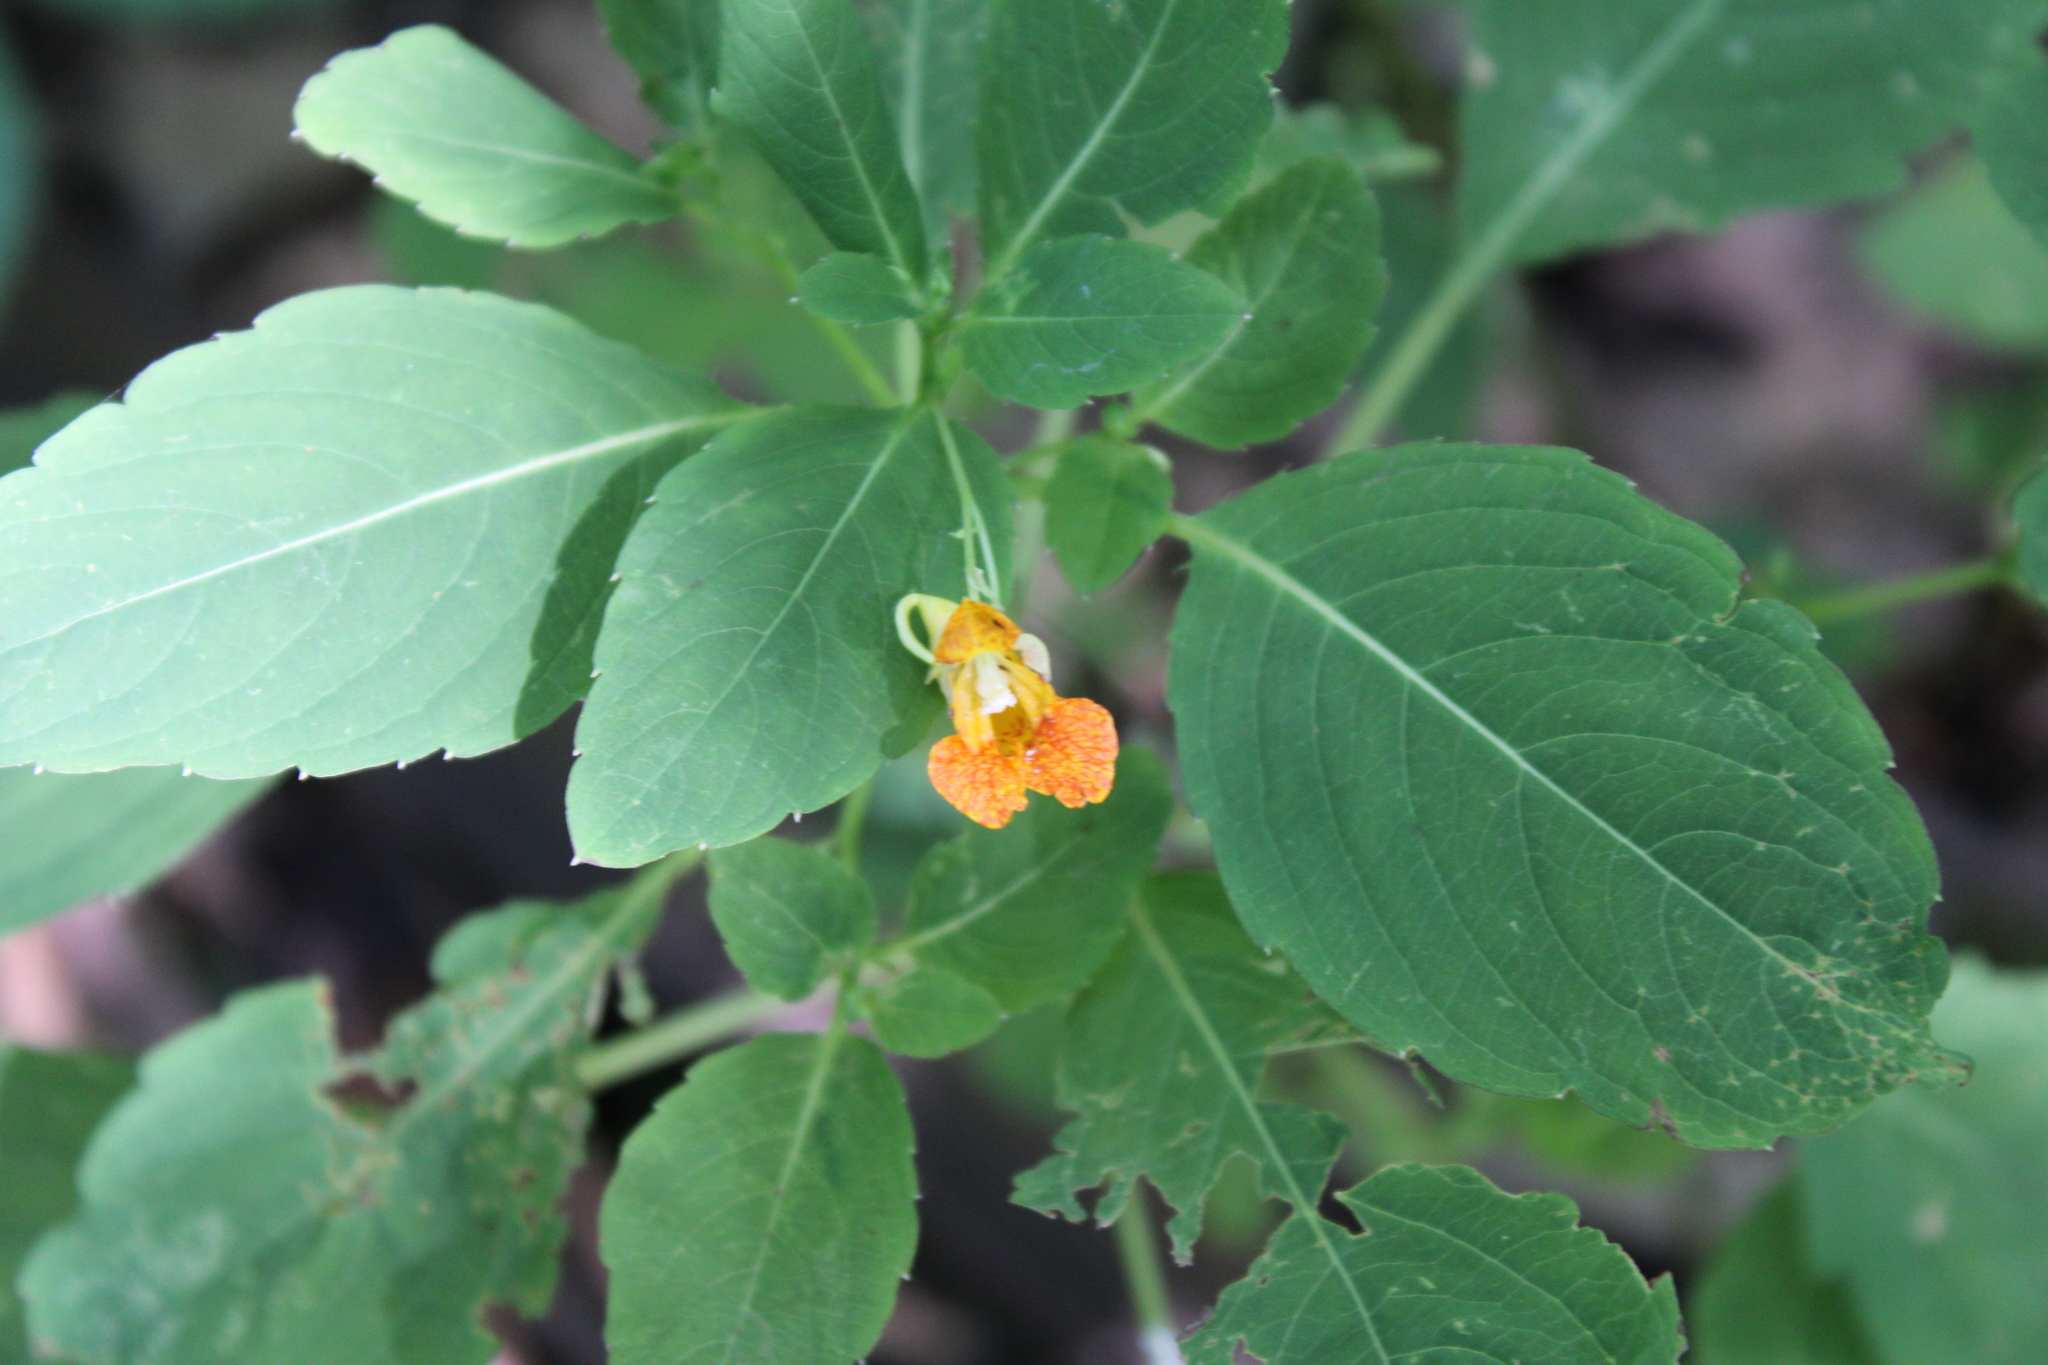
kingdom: Plantae
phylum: Tracheophyta
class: Magnoliopsida
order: Ericales
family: Balsaminaceae
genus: Impatiens
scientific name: Impatiens capensis
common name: Orange balsam
